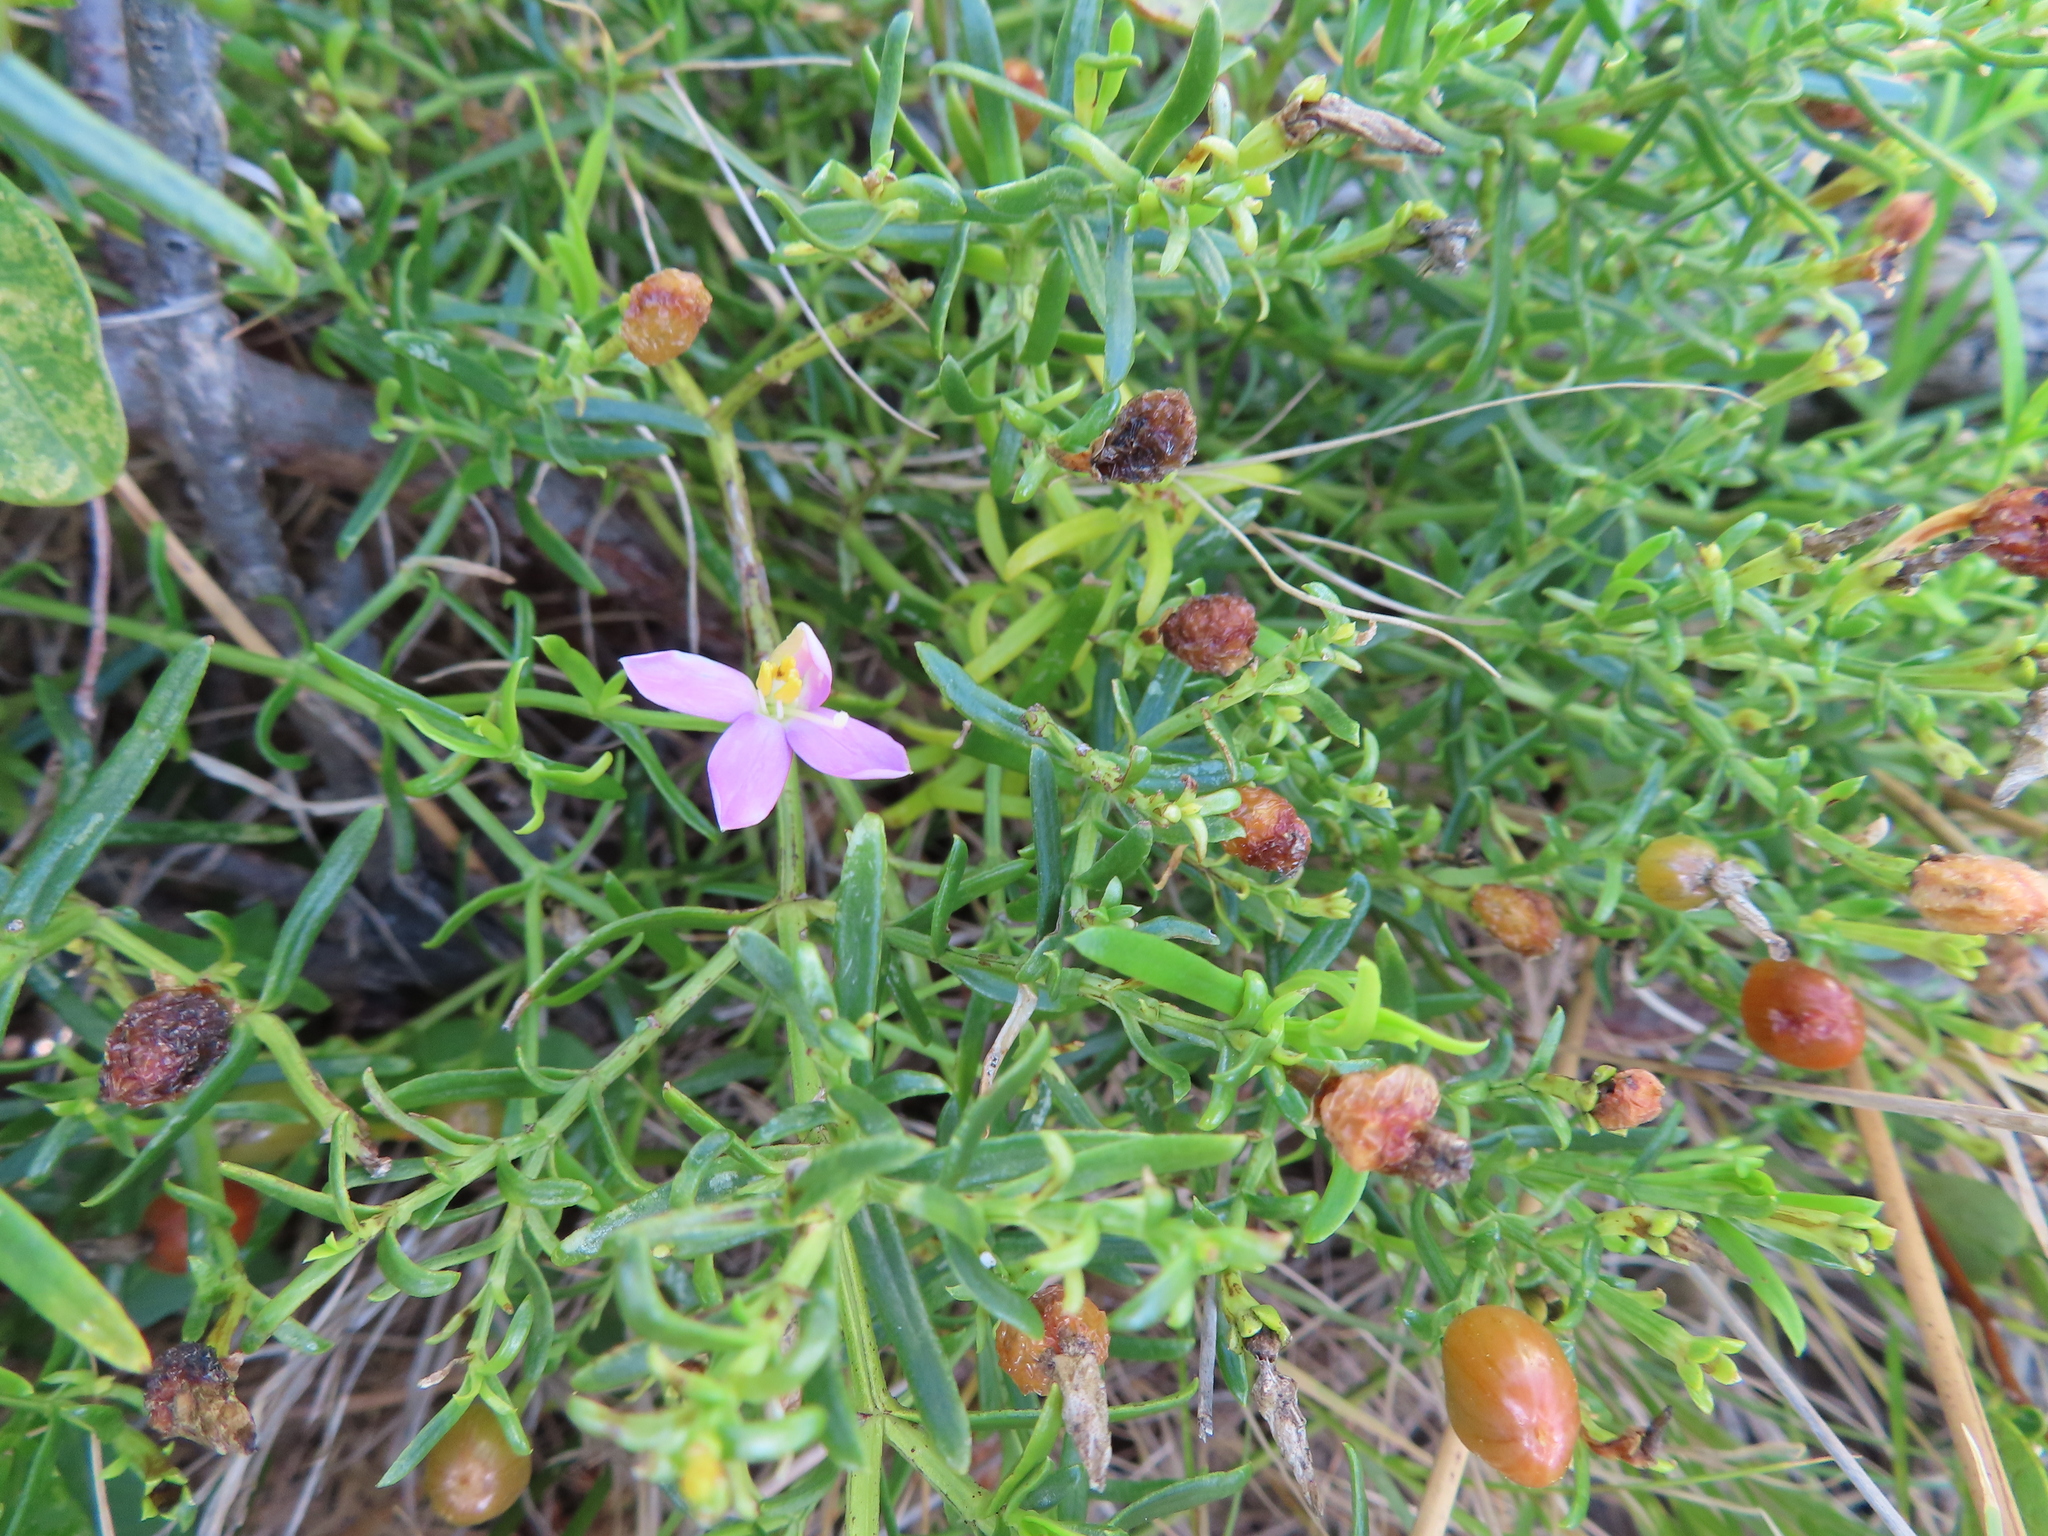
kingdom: Plantae
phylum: Tracheophyta
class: Magnoliopsida
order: Gentianales
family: Gentianaceae
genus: Chironia
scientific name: Chironia baccifera
